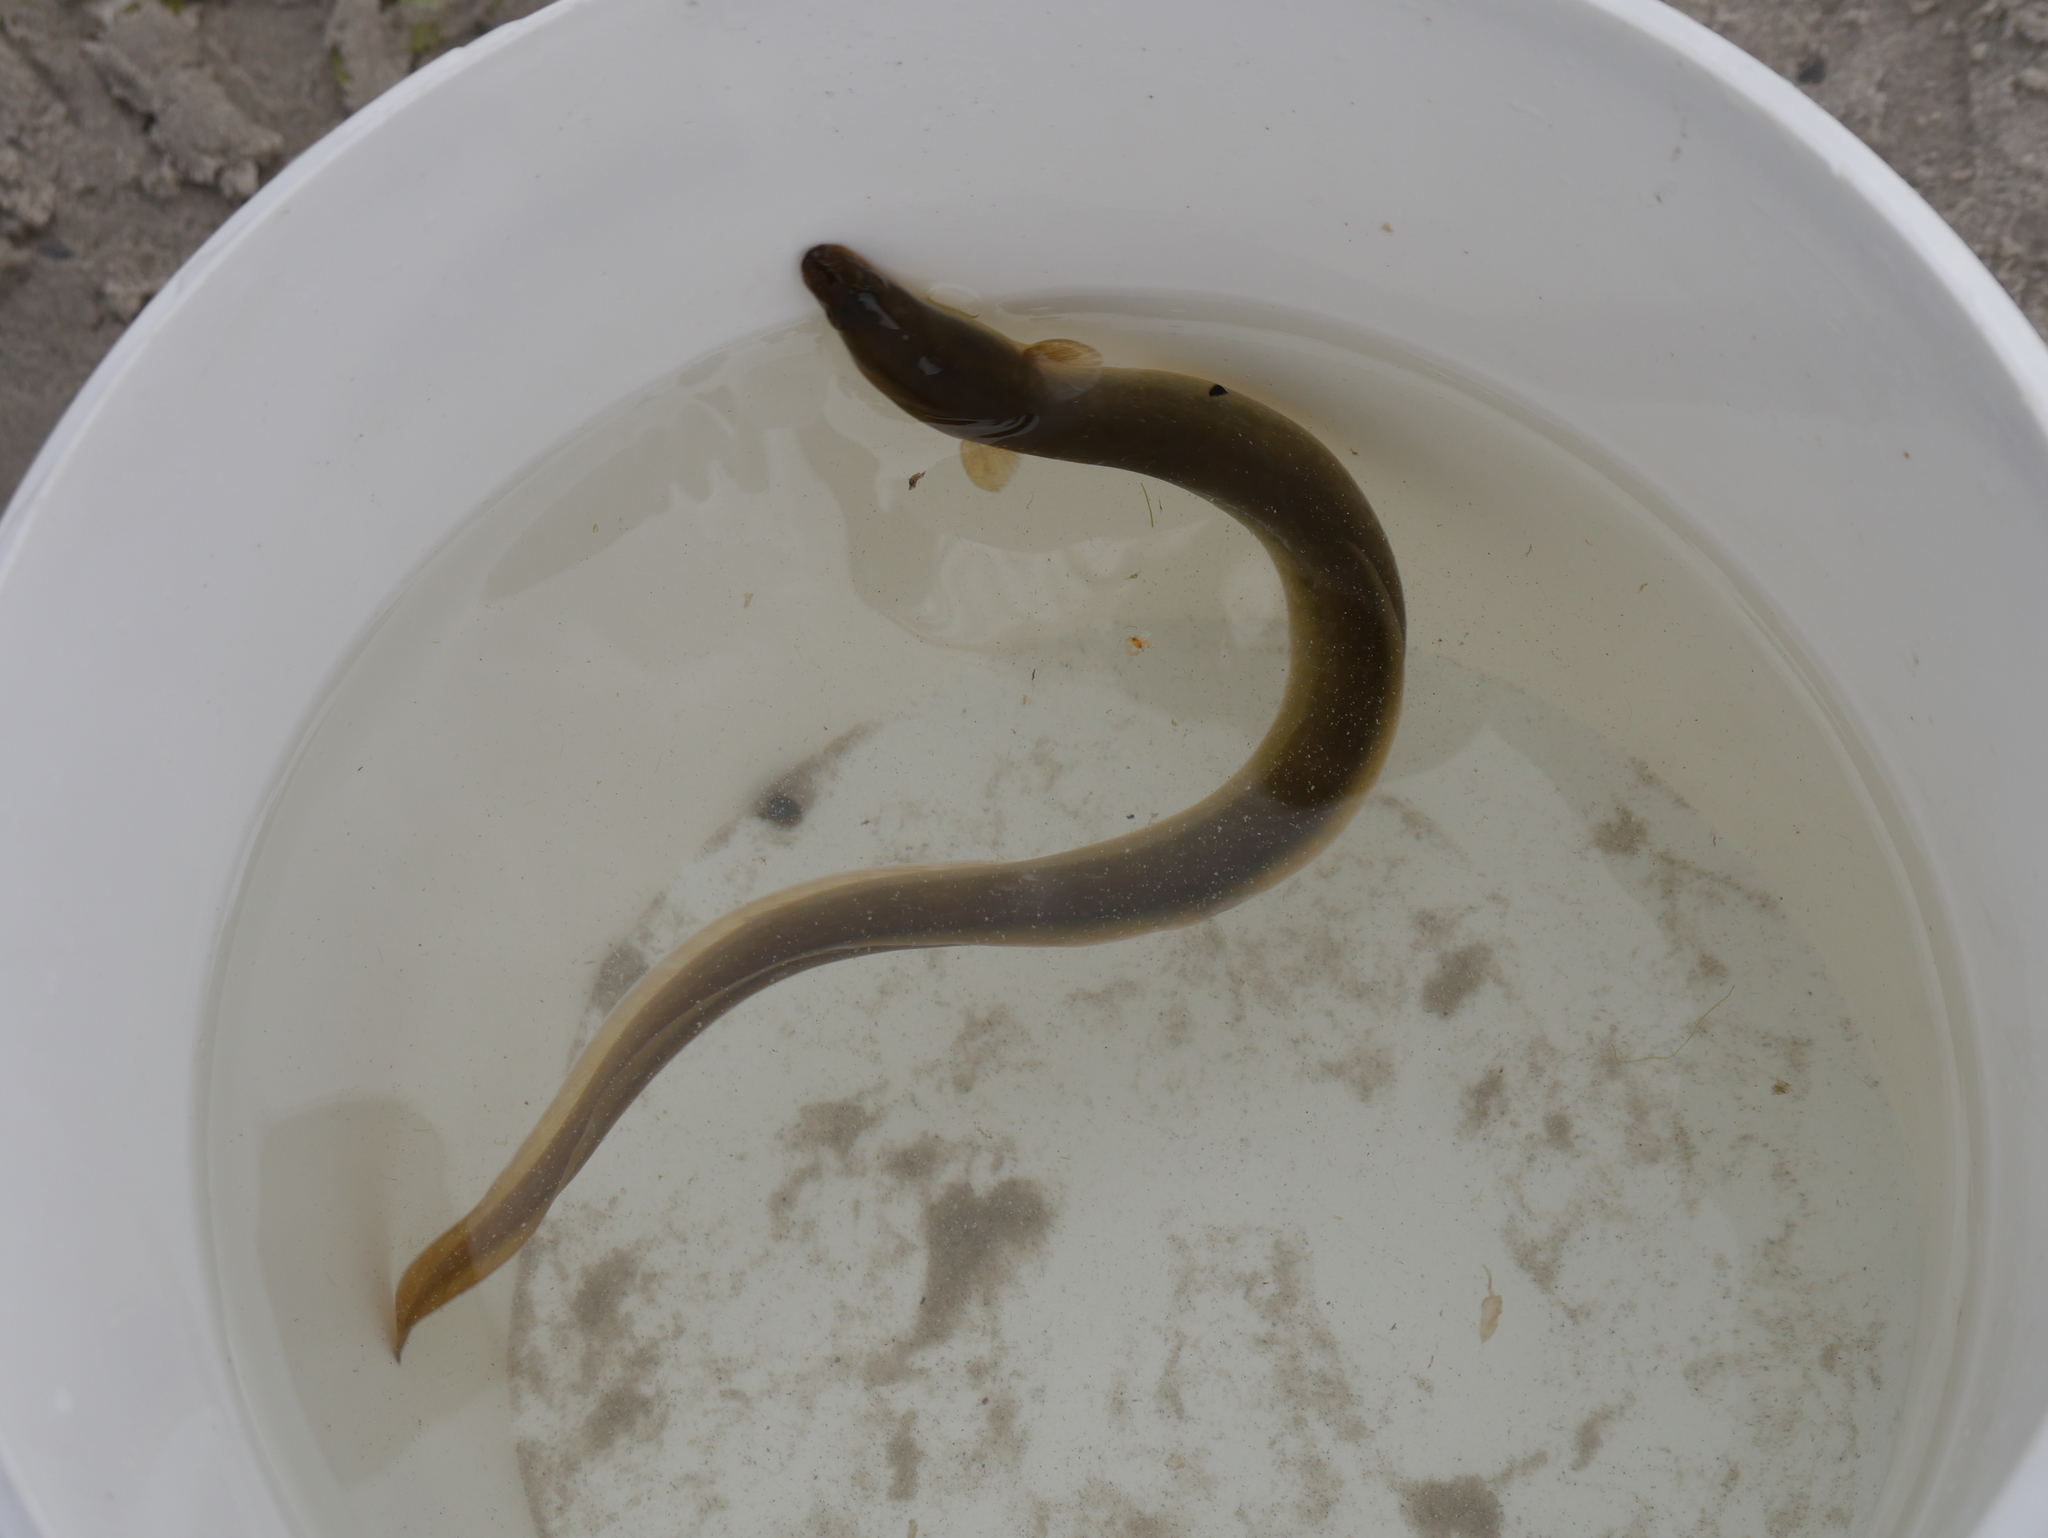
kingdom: Animalia
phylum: Chordata
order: Anguilliformes
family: Anguillidae
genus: Anguilla
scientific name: Anguilla anguilla
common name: European eel
